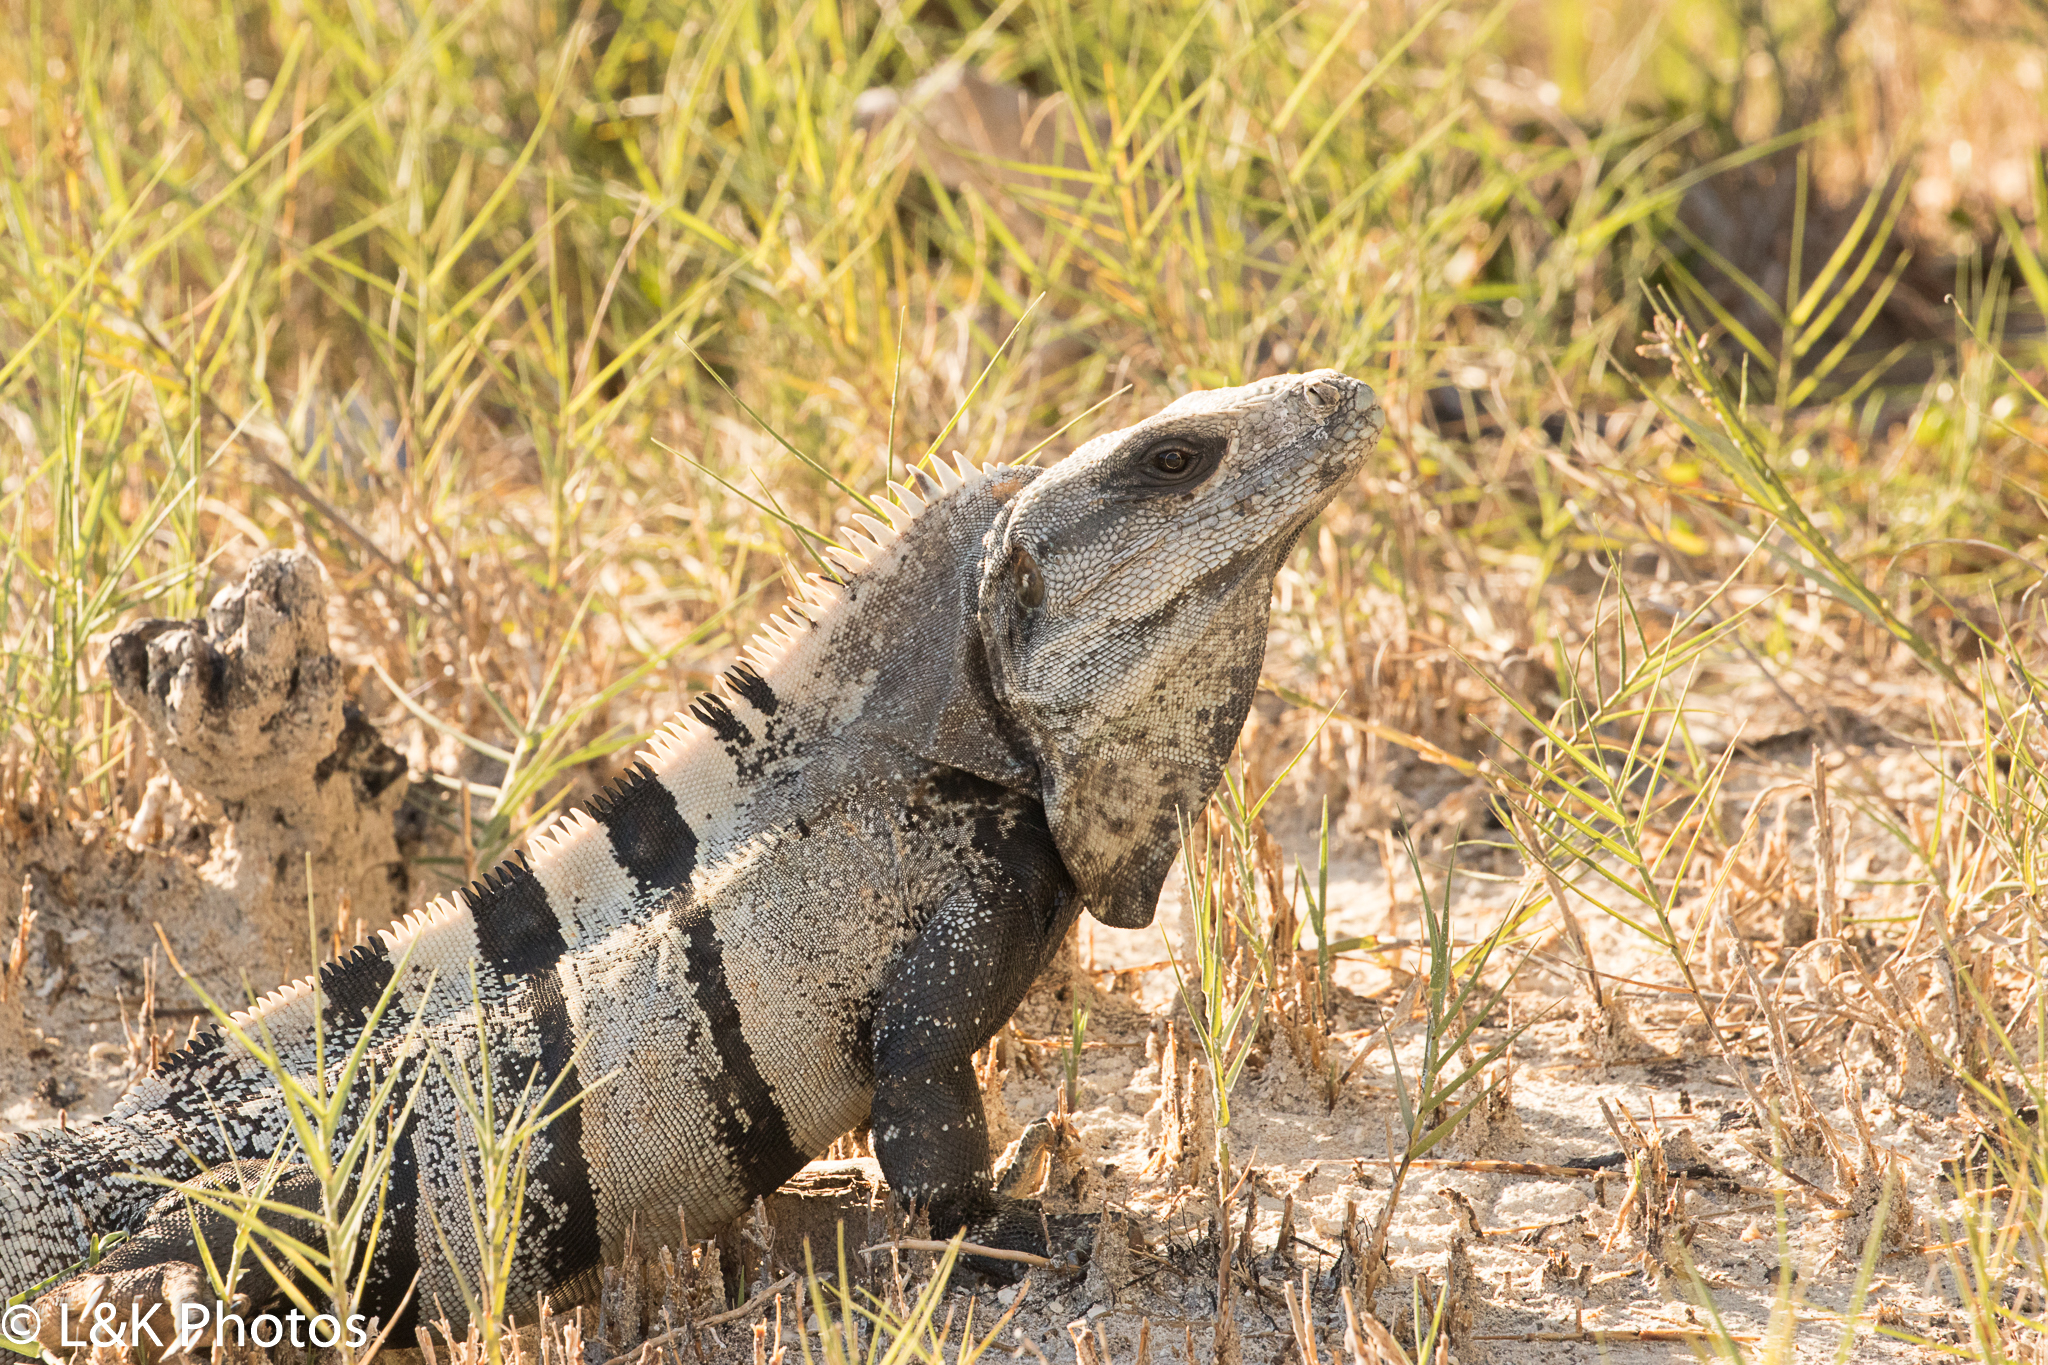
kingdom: Animalia
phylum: Chordata
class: Squamata
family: Iguanidae
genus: Ctenosaura
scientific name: Ctenosaura similis
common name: Black spiny-tailed iguana
